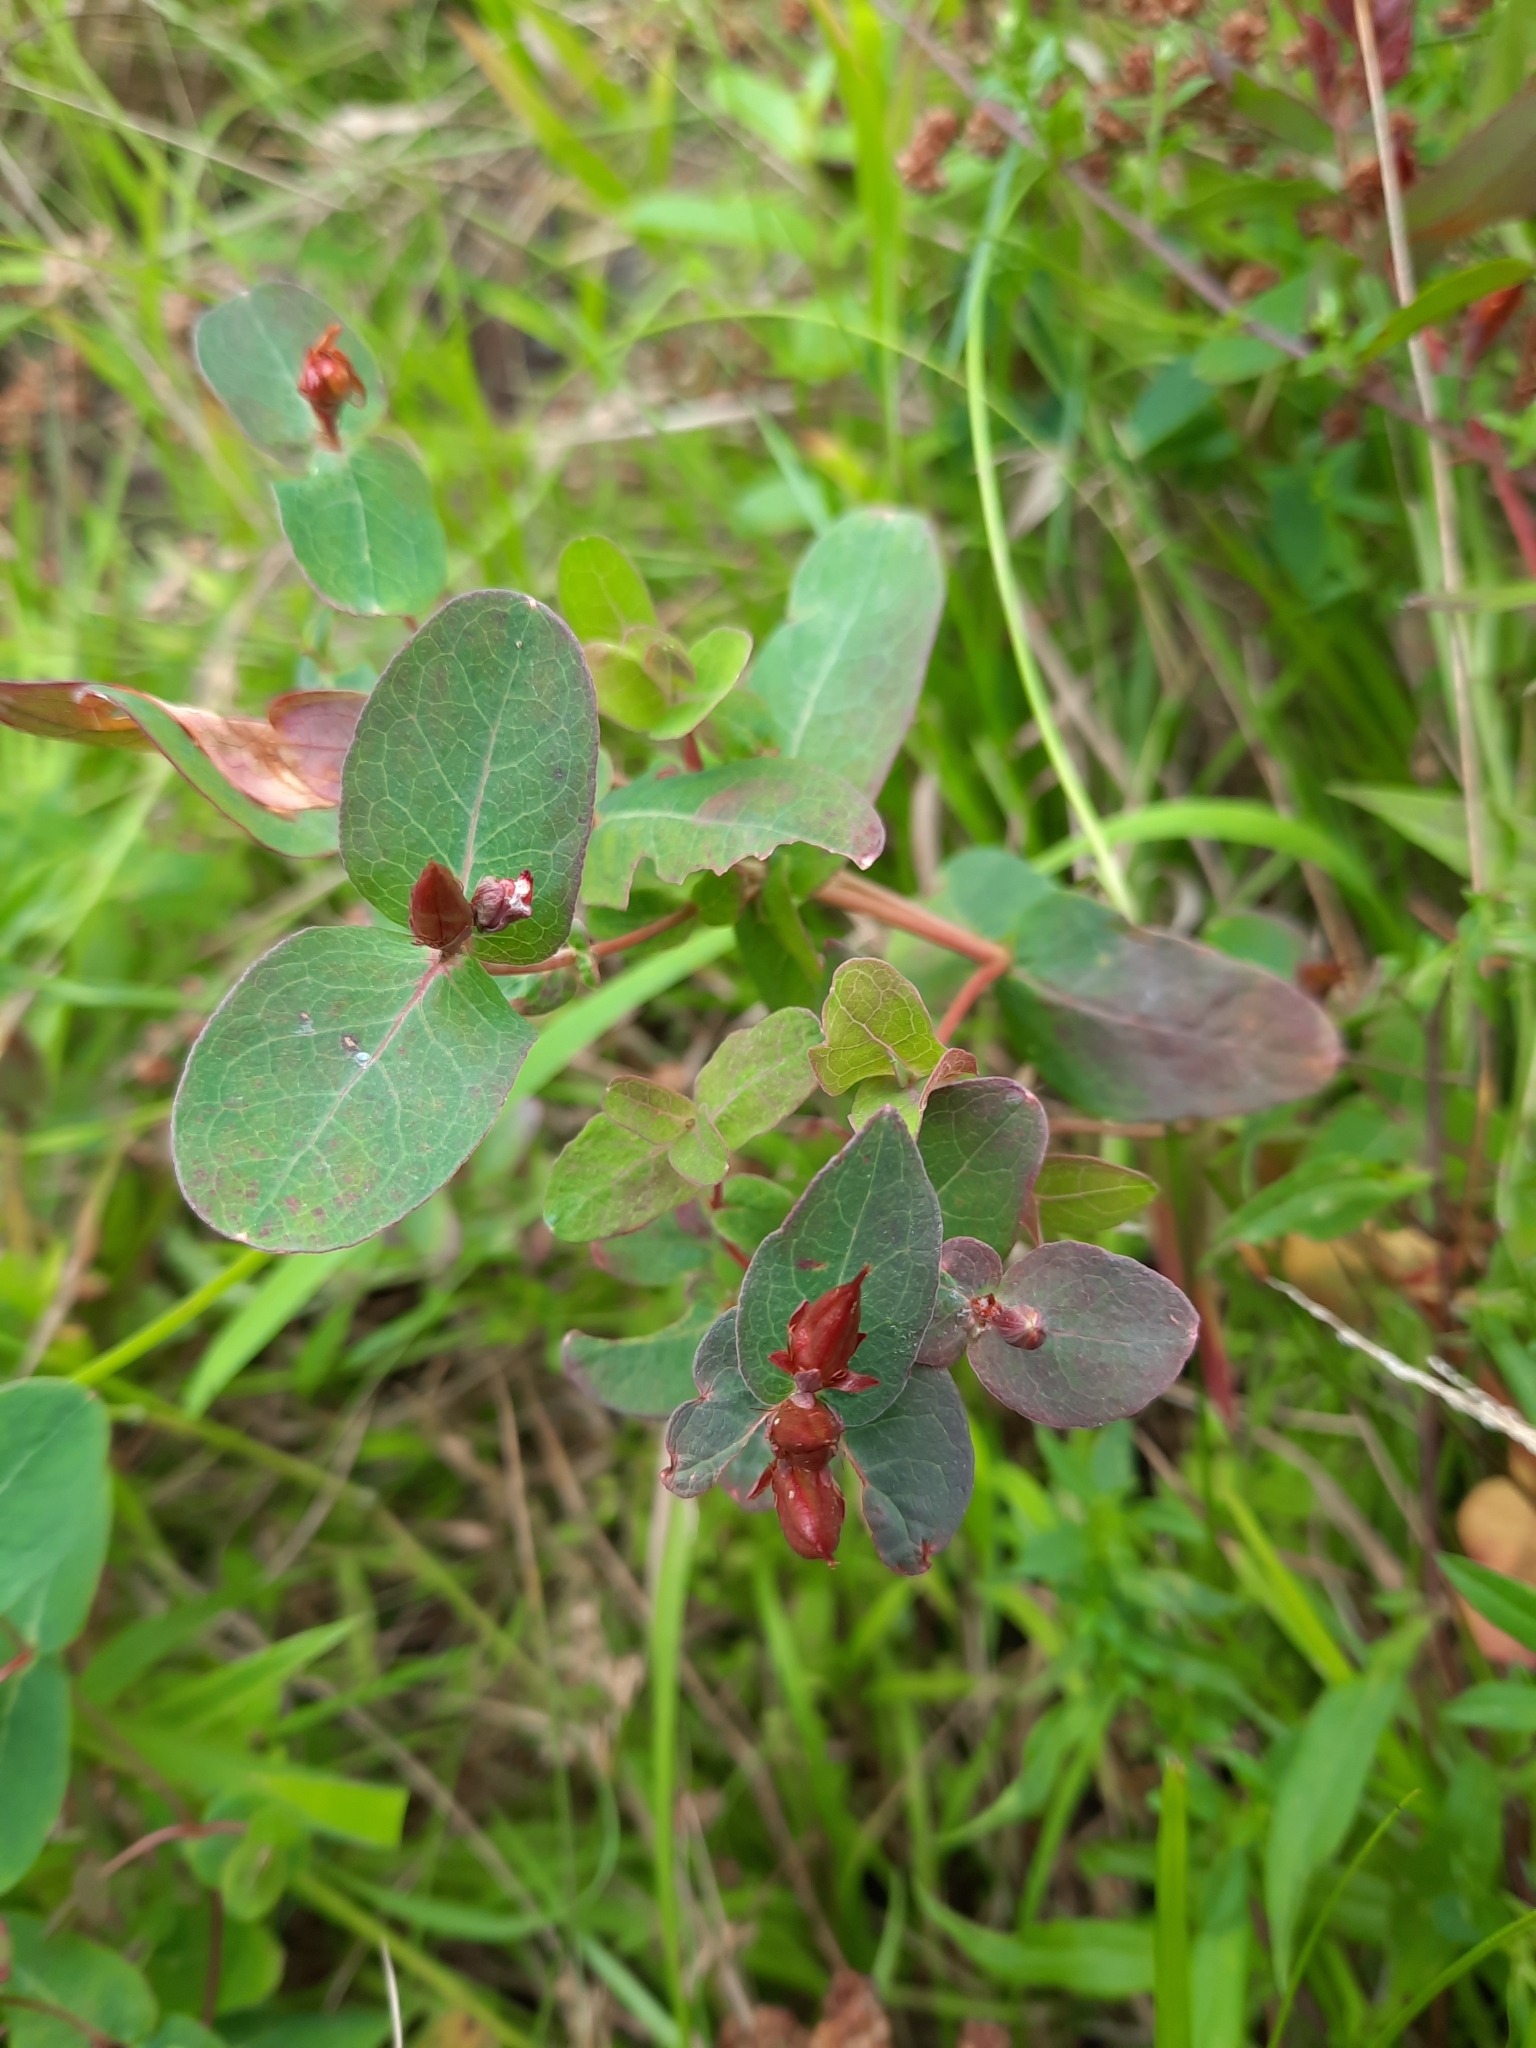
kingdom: Plantae
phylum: Tracheophyta
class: Magnoliopsida
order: Malpighiales
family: Hypericaceae
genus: Triadenum
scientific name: Triadenum virginicum
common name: Marsh st. john's-wort
